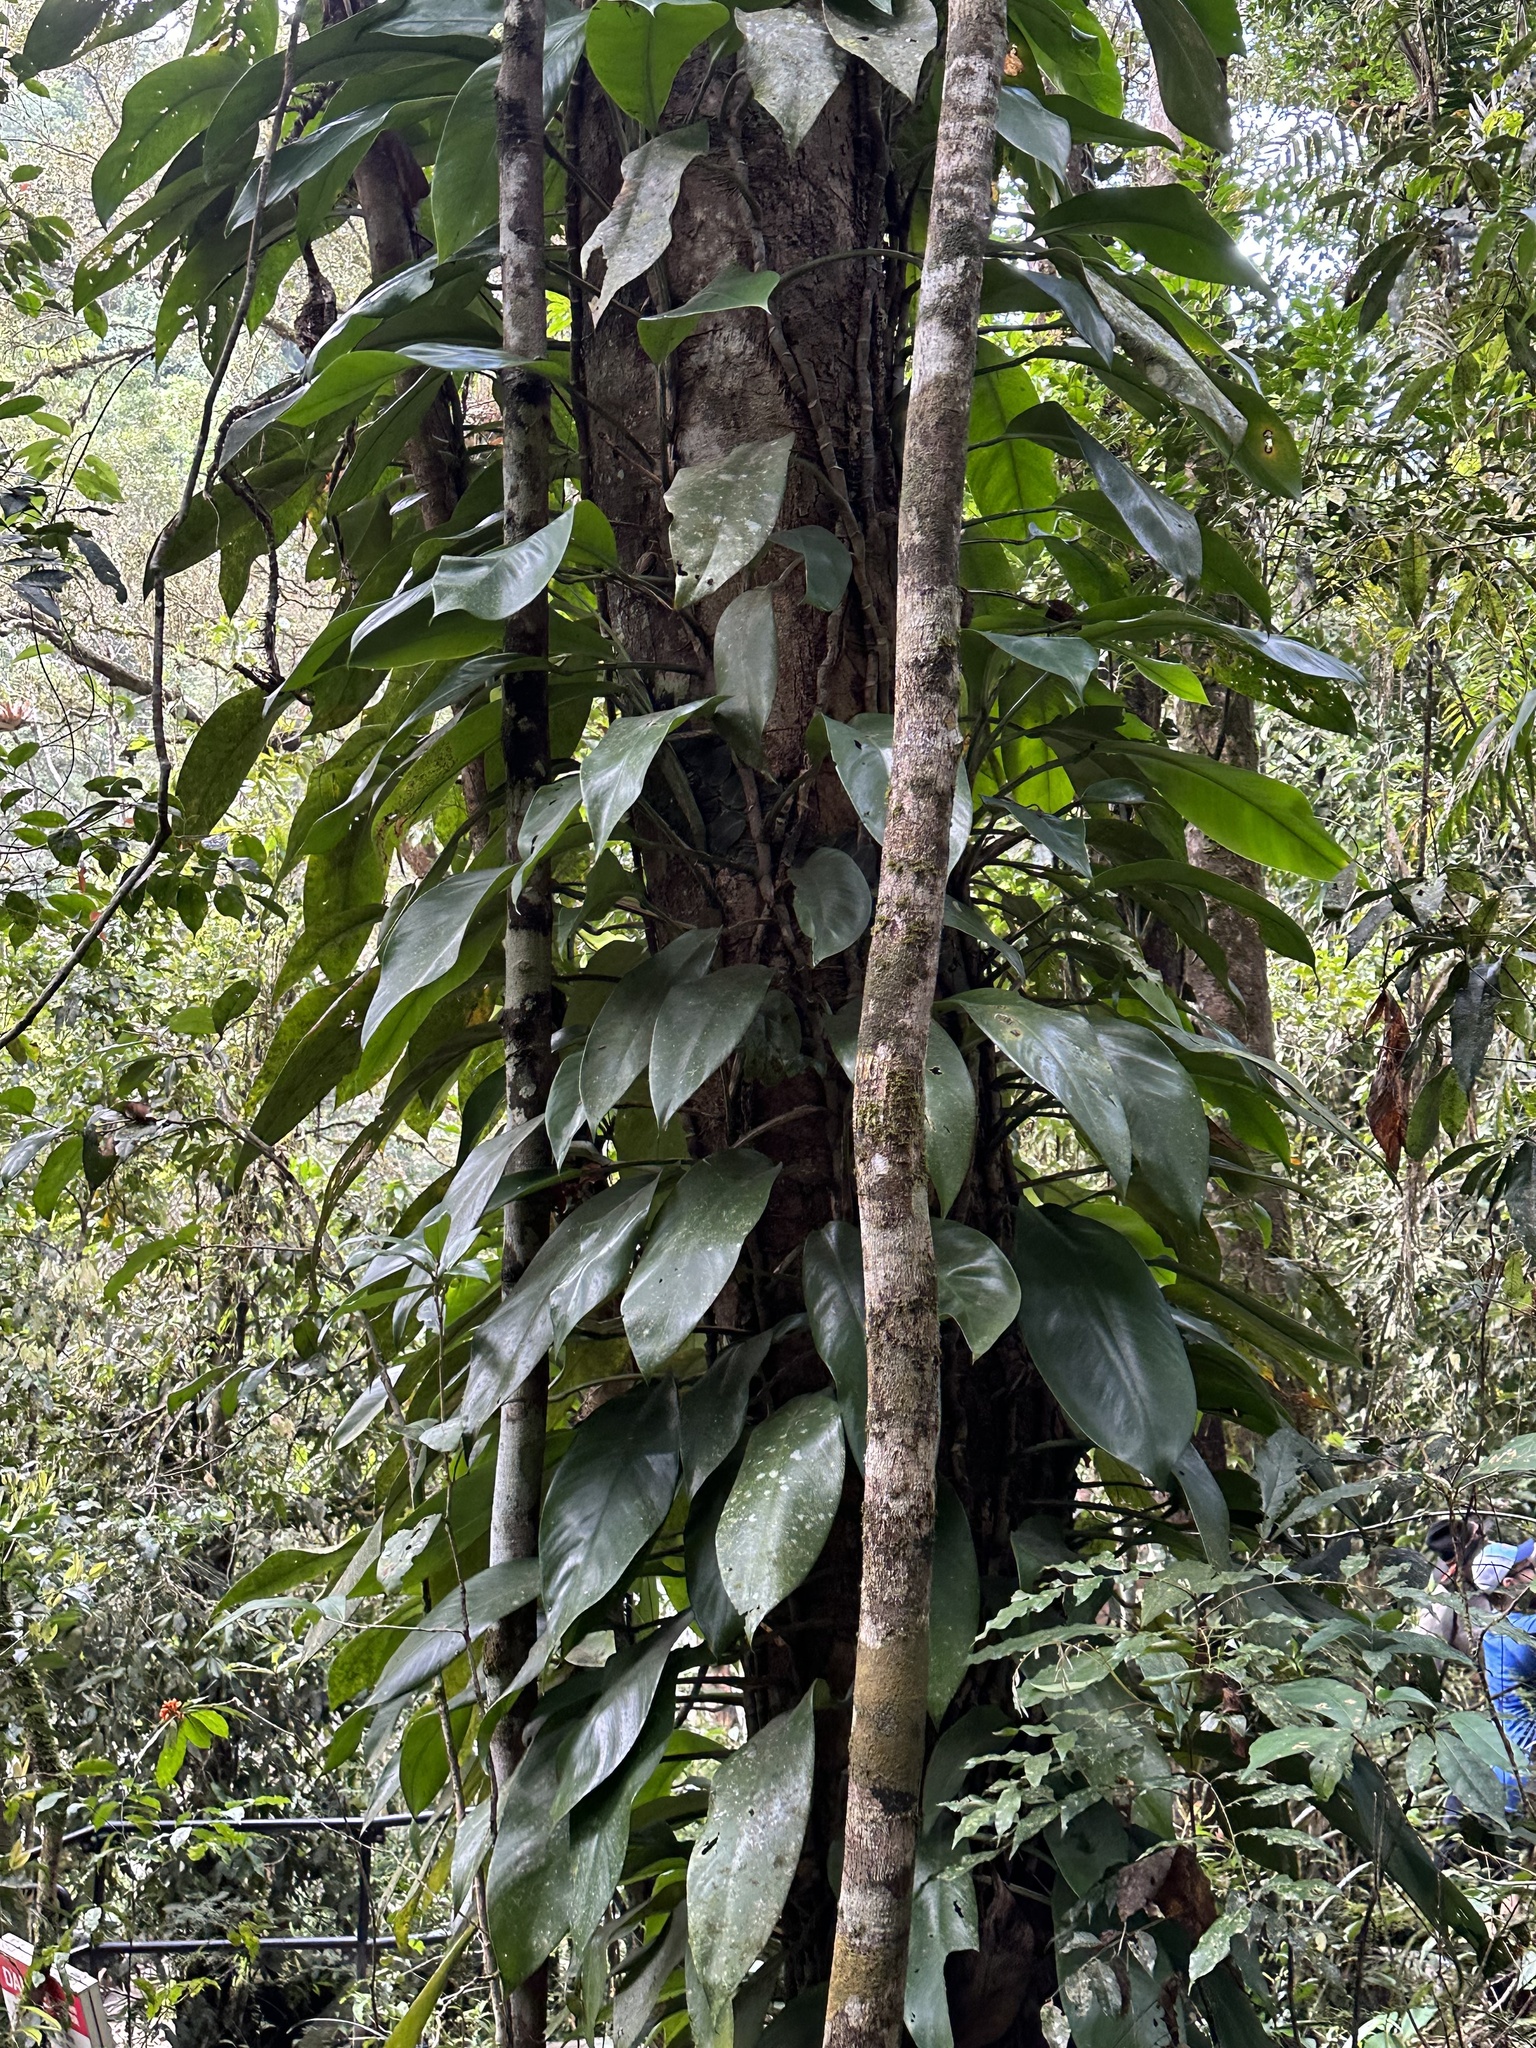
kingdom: Plantae
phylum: Tracheophyta
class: Liliopsida
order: Alismatales
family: Araceae
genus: Rhaphidophora
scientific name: Rhaphidophora australasica
